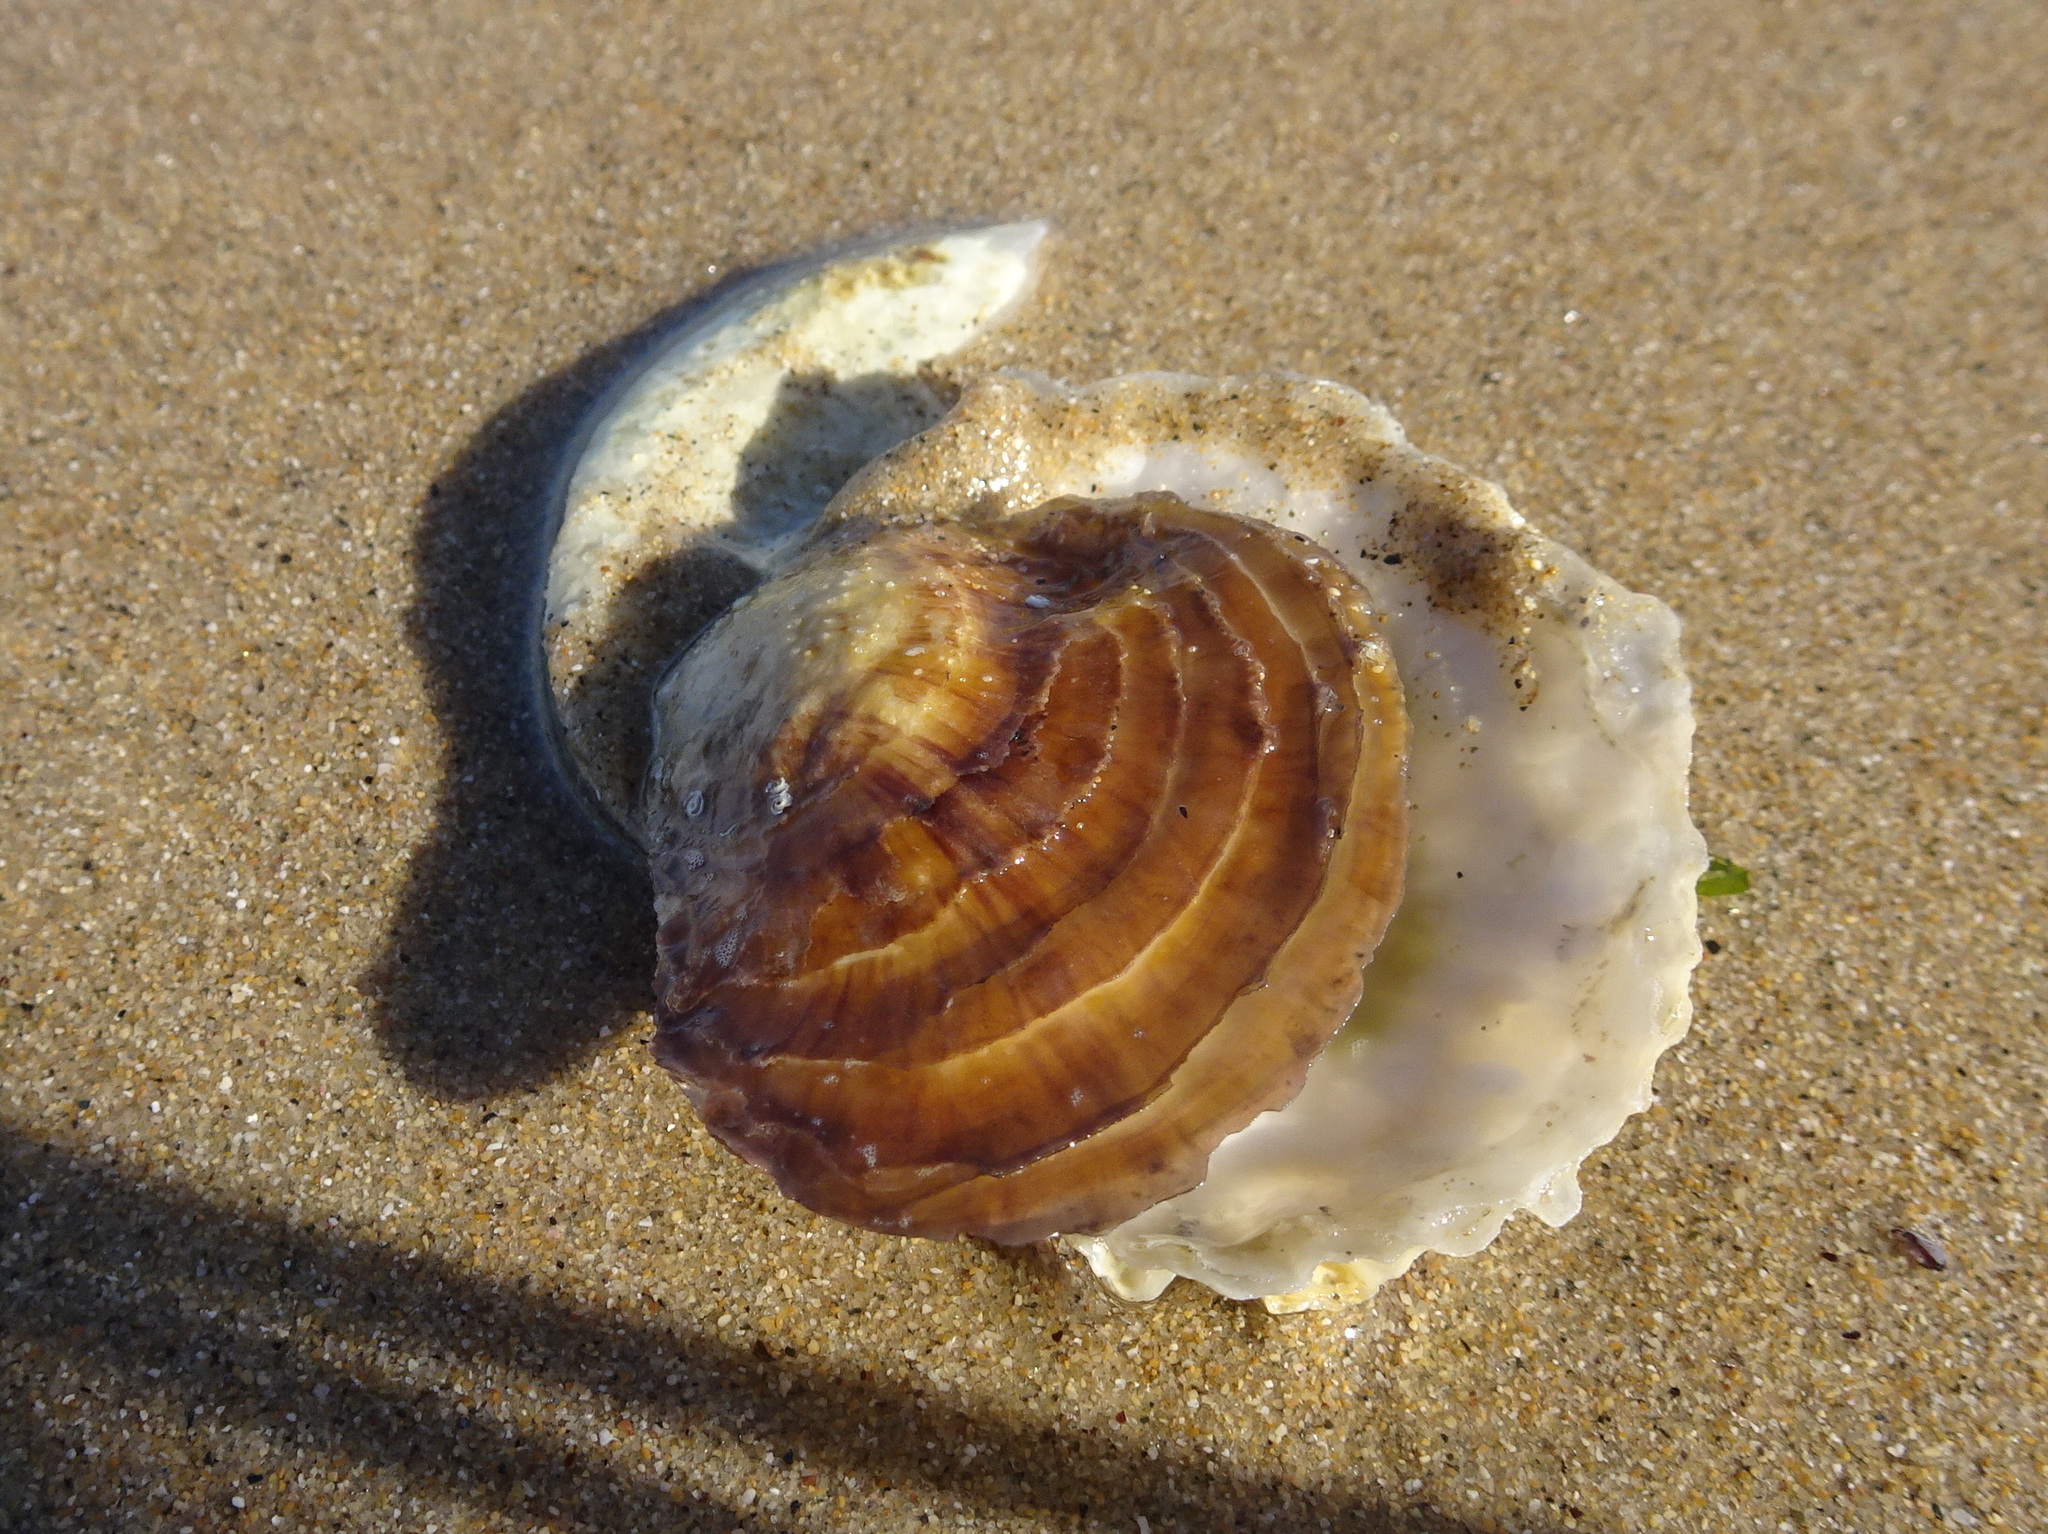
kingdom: Animalia
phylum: Mollusca
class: Bivalvia
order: Ostreida
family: Ostreidae
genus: Ostrea
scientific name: Ostrea edulis
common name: Flat oyster
